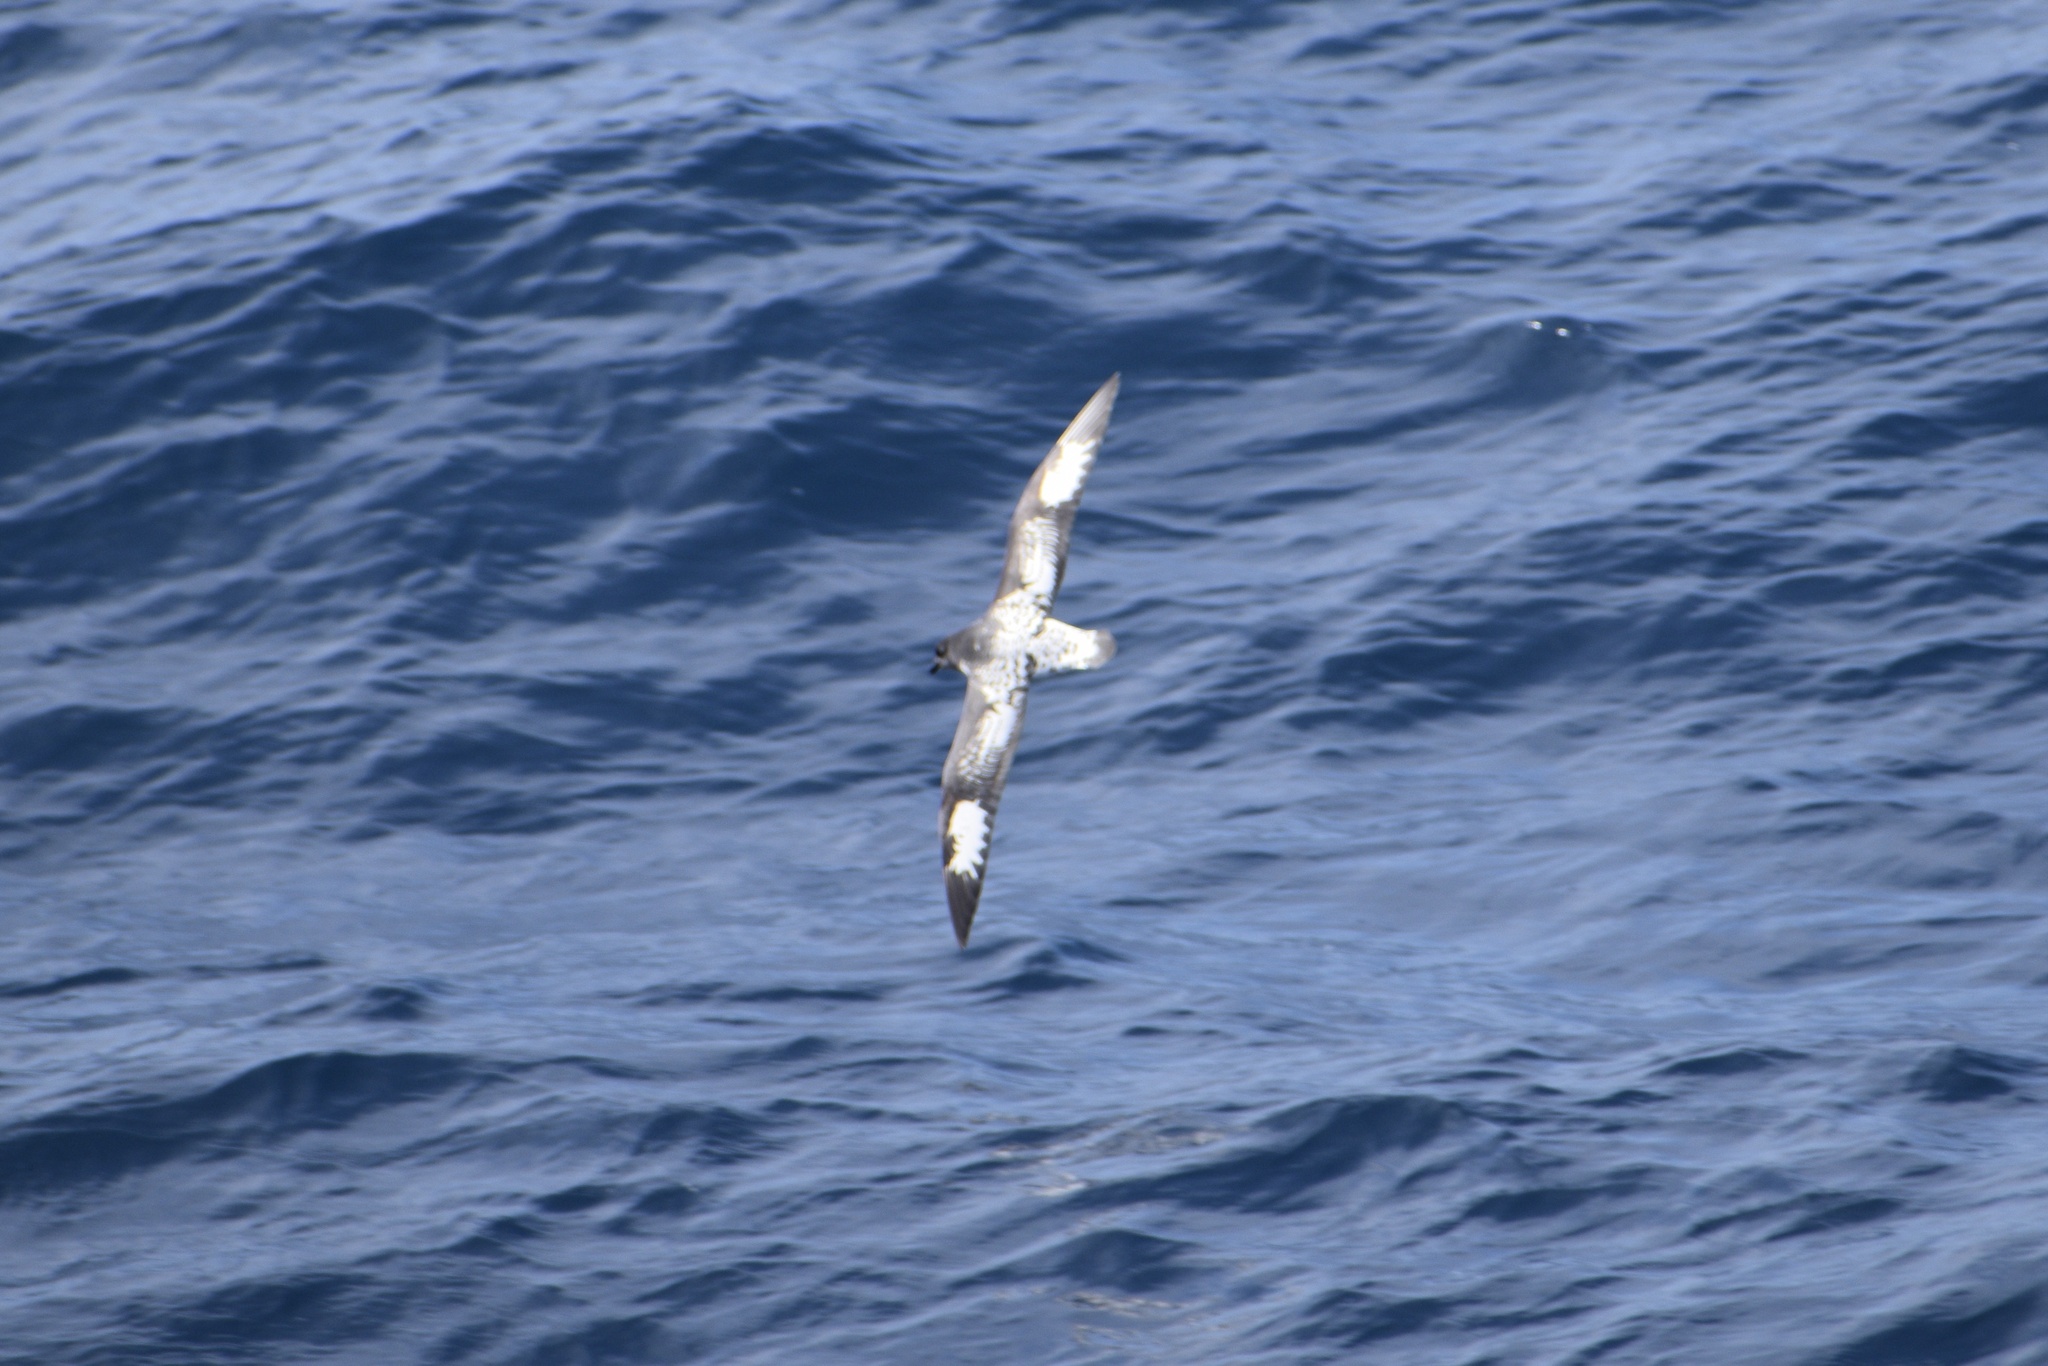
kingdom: Animalia
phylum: Chordata
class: Aves
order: Procellariiformes
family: Procellariidae
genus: Daption
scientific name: Daption capense
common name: Cape petrel
